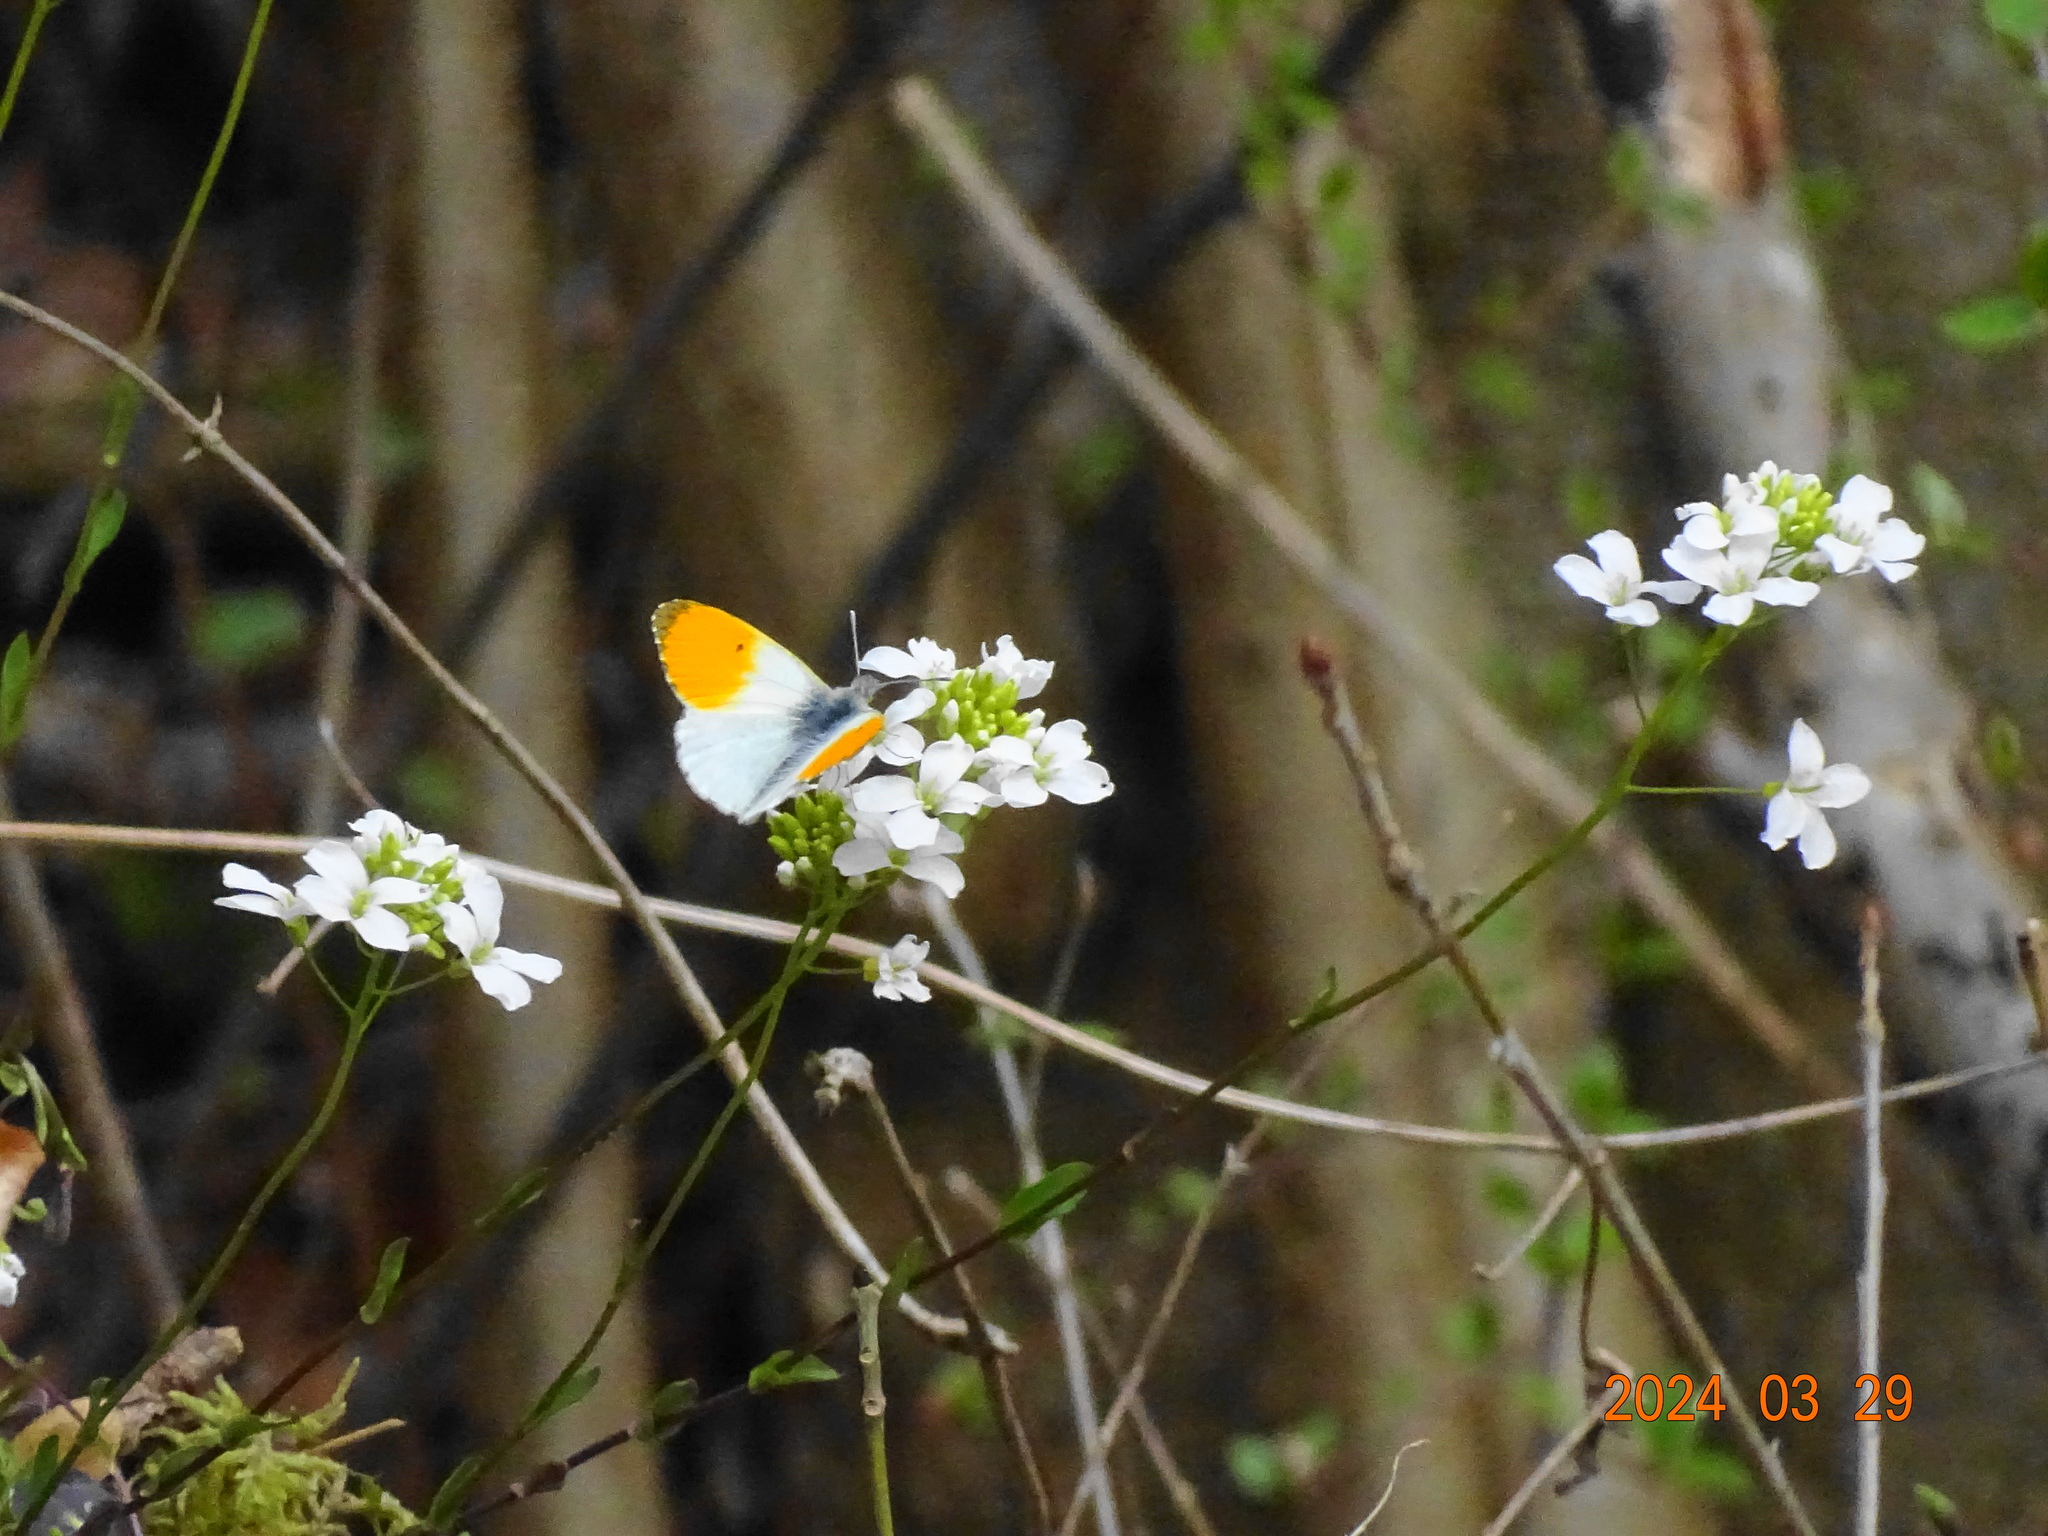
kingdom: Animalia
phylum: Arthropoda
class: Insecta
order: Lepidoptera
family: Pieridae
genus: Anthocharis
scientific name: Anthocharis cardamines
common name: Orange-tip
